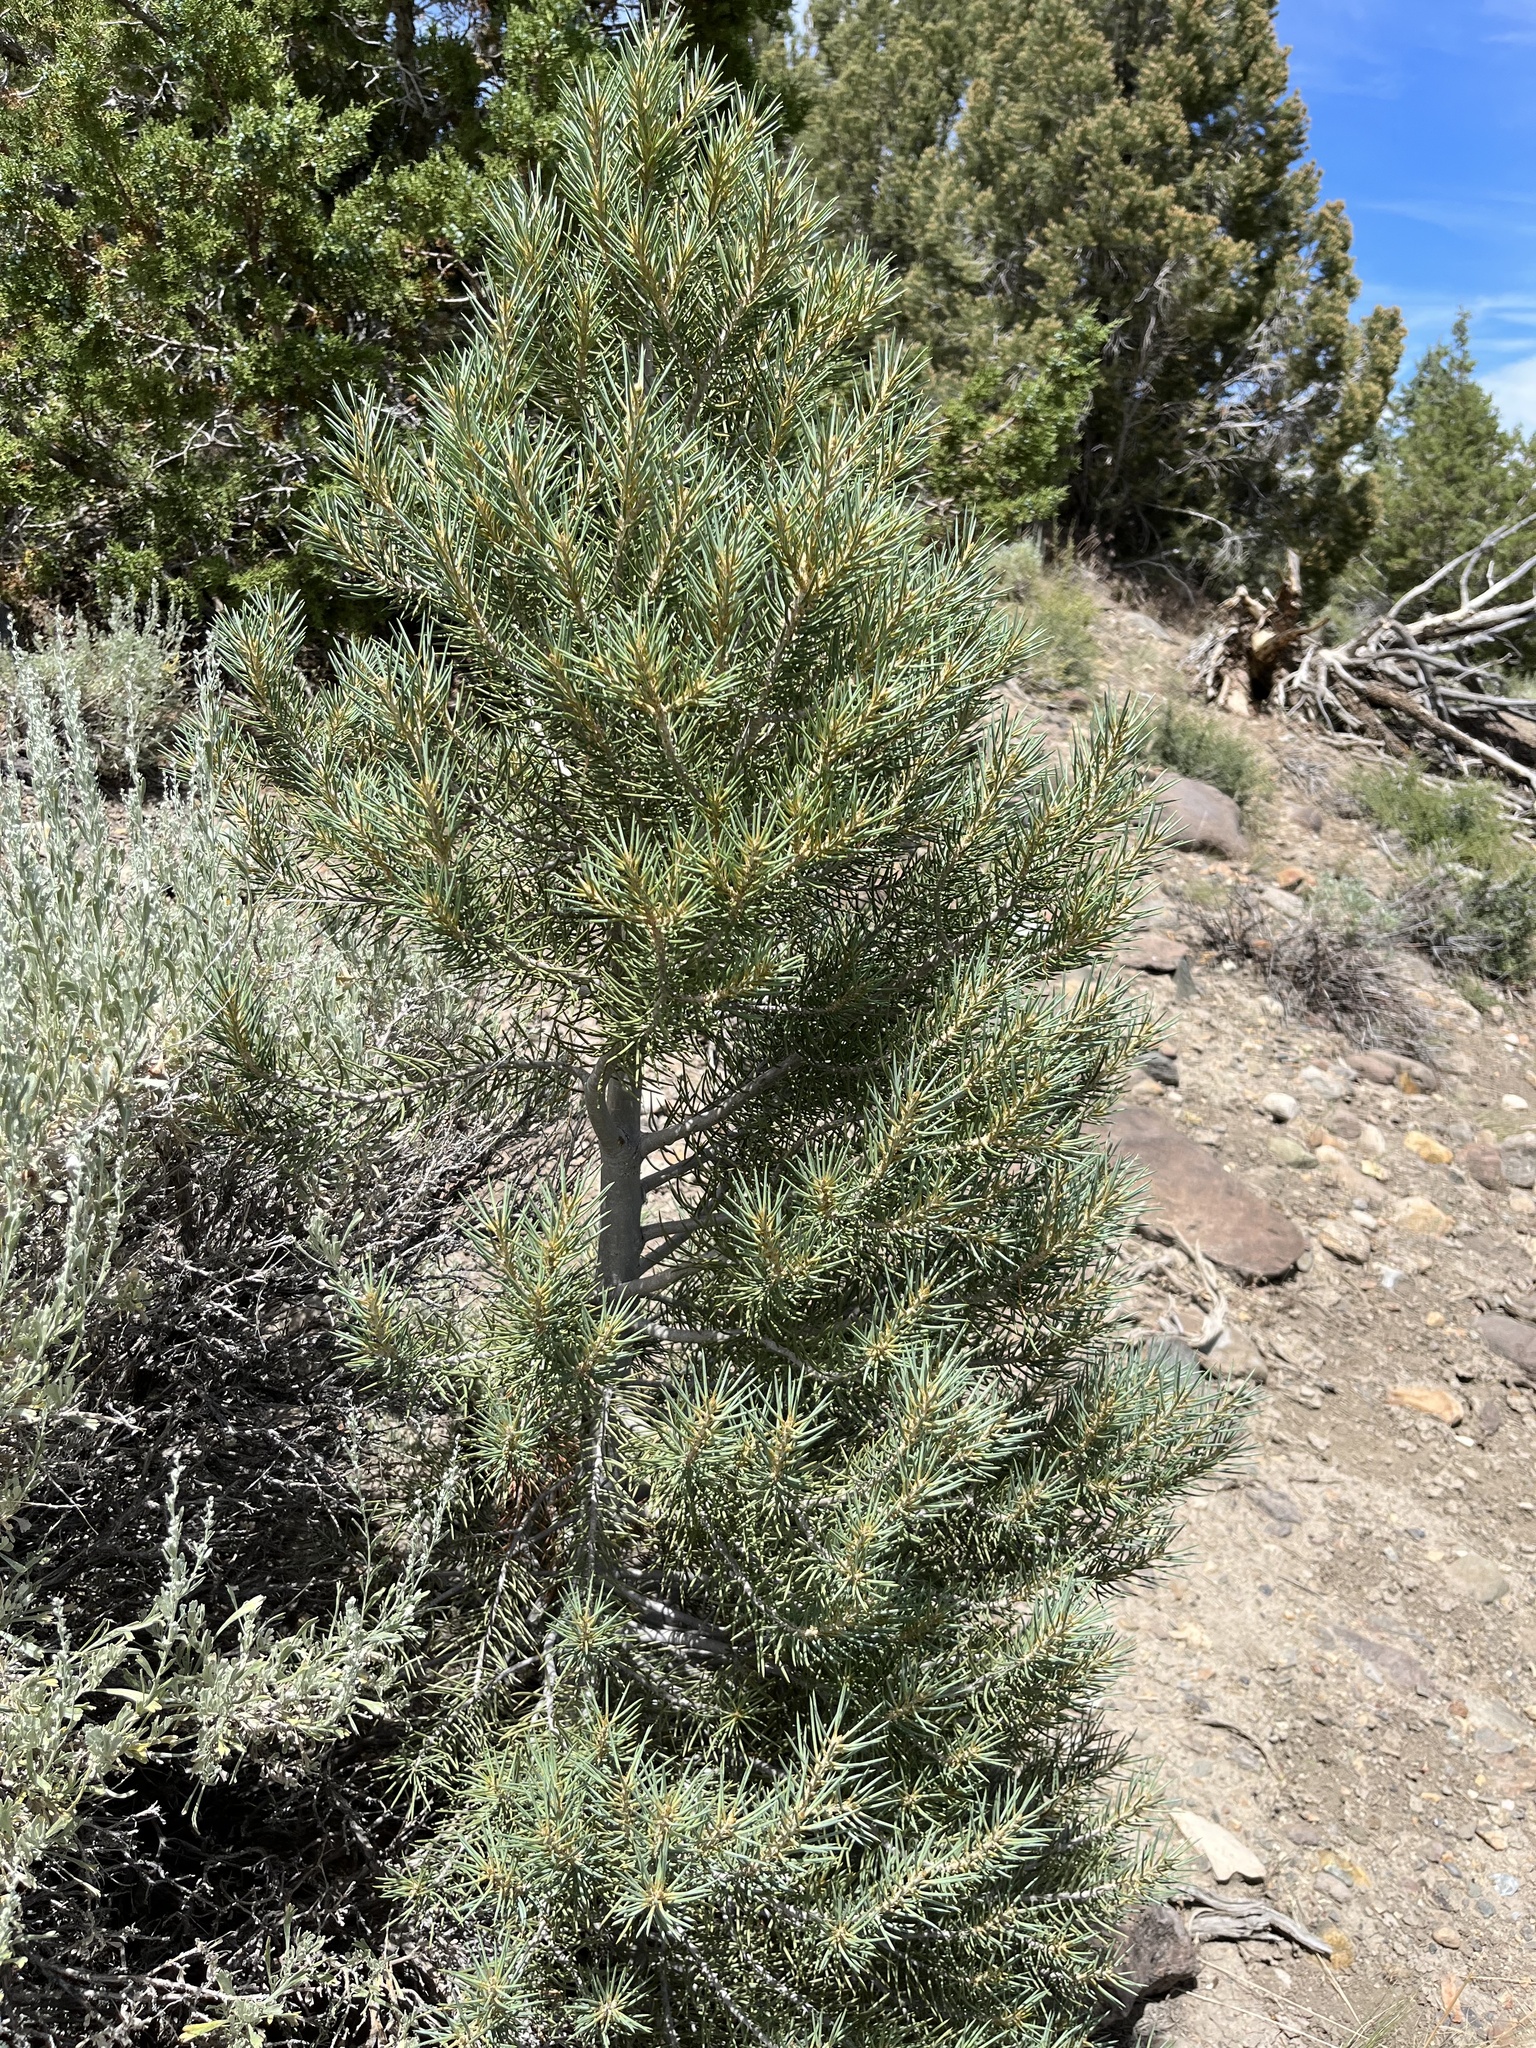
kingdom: Plantae
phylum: Tracheophyta
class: Pinopsida
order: Pinales
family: Pinaceae
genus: Pinus
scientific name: Pinus monophylla
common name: One-leaved nut pine
